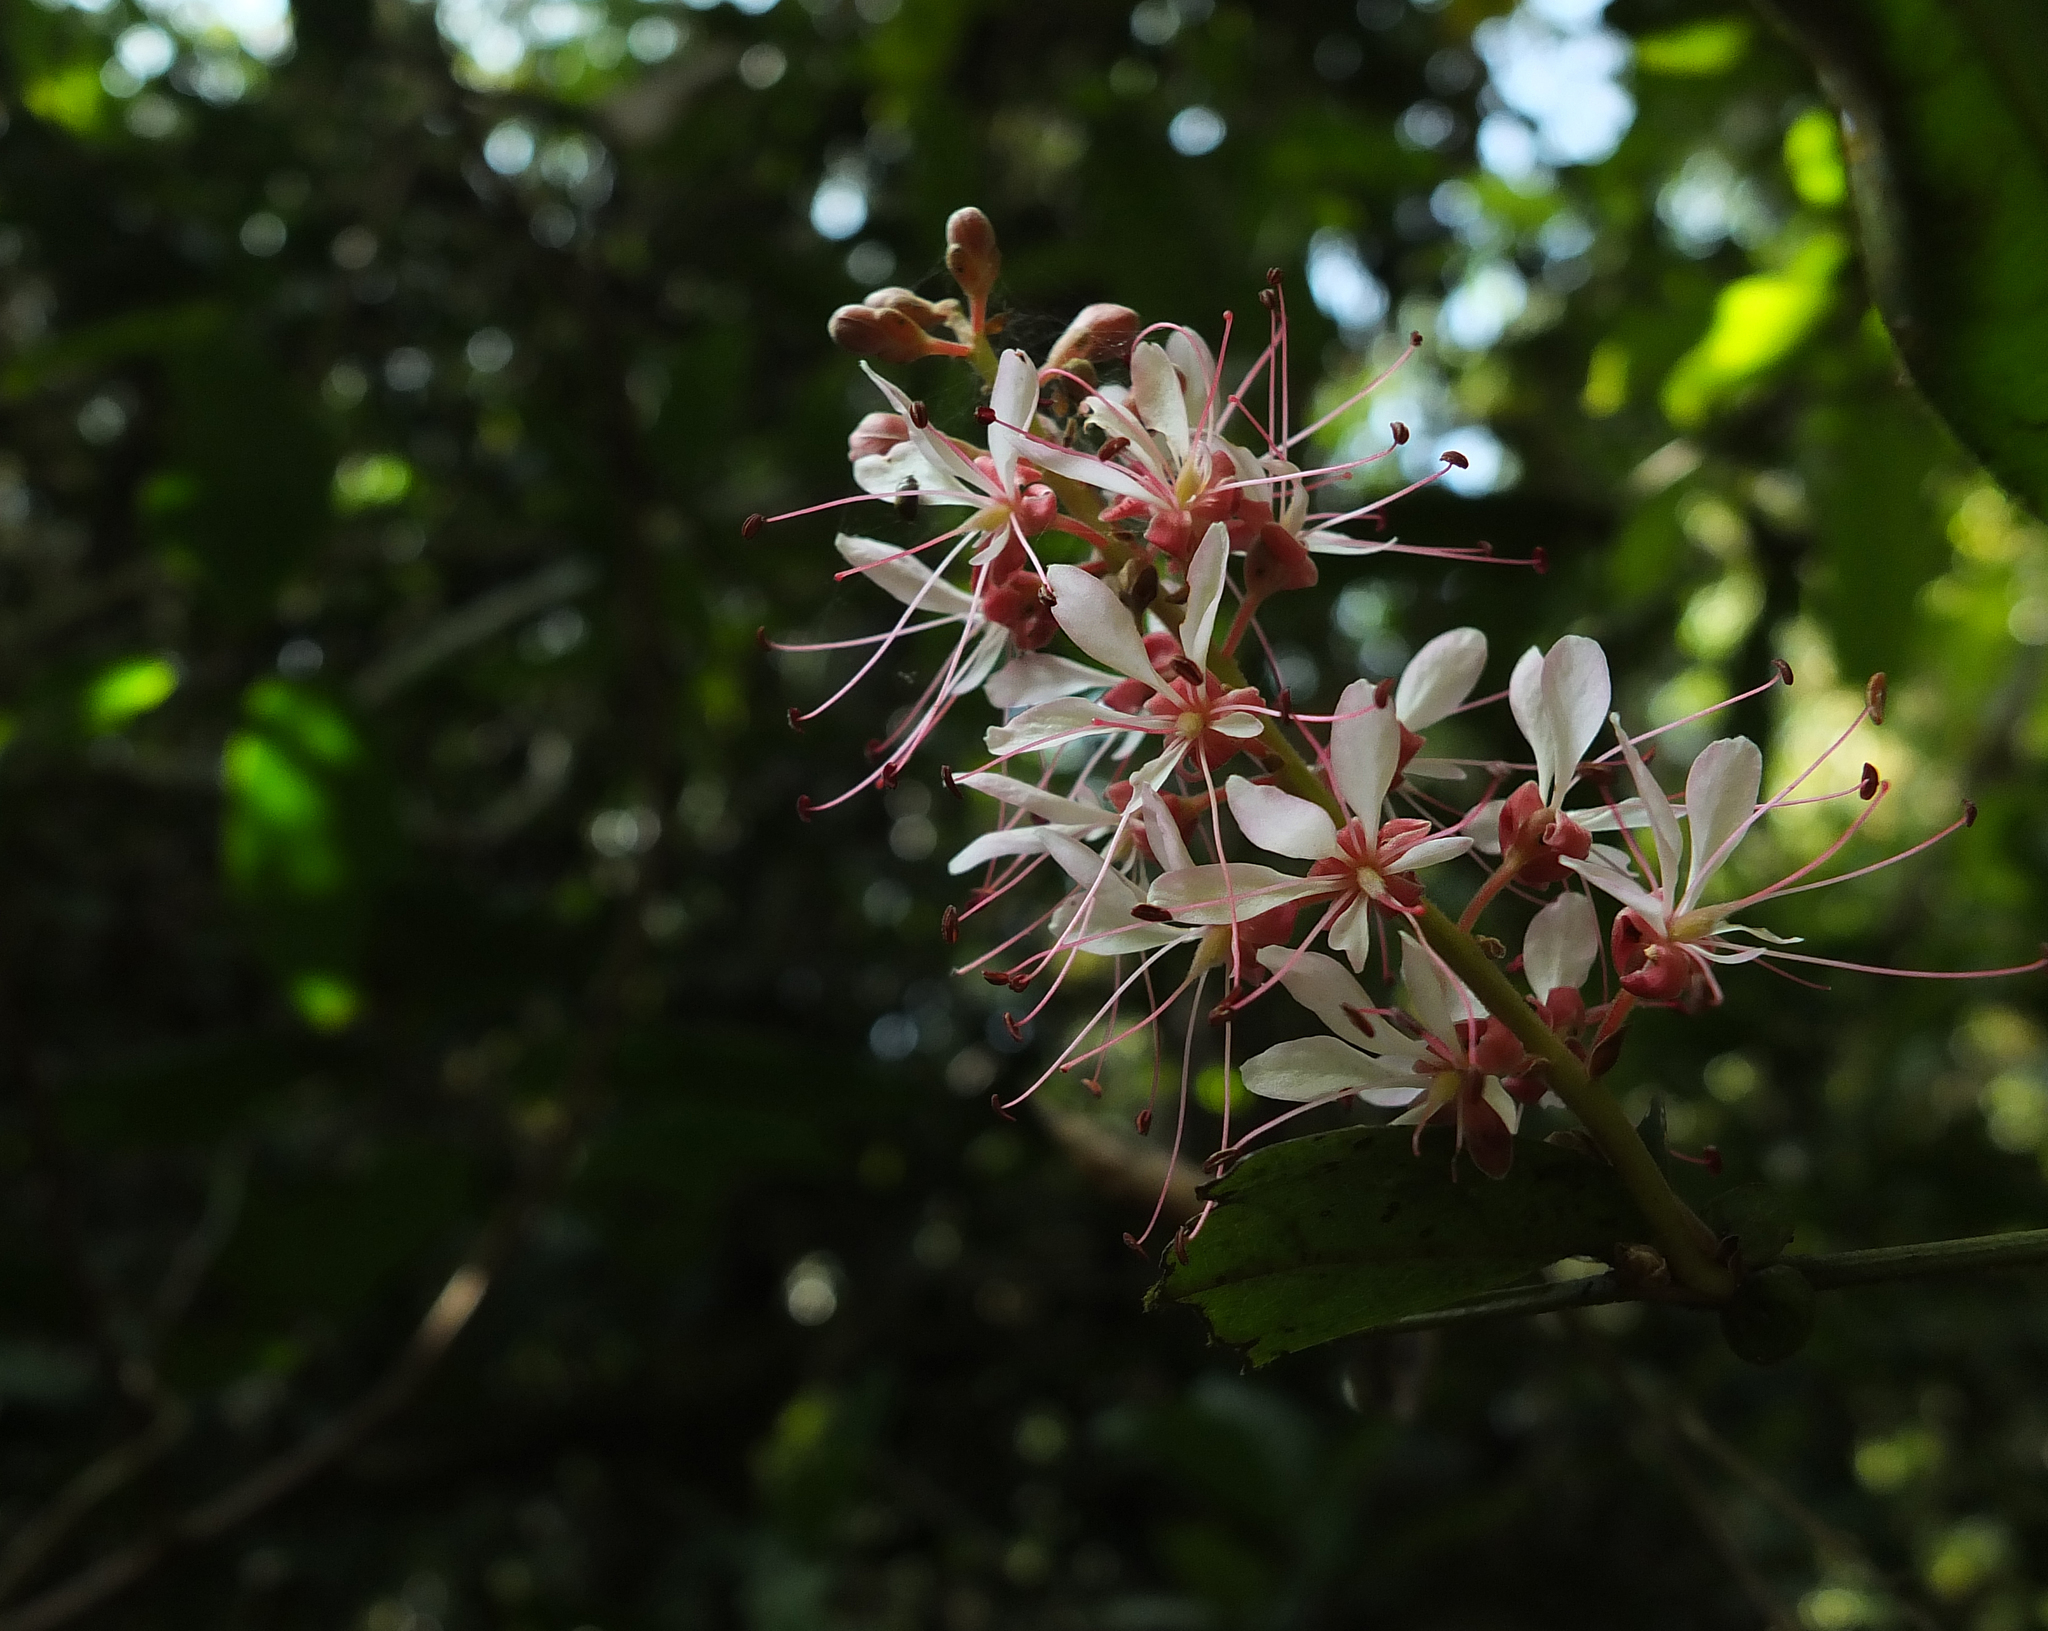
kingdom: Plantae
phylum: Tracheophyta
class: Magnoliopsida
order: Fabales
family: Fabaceae
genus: Humboldtia
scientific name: Humboldtia brunonis
